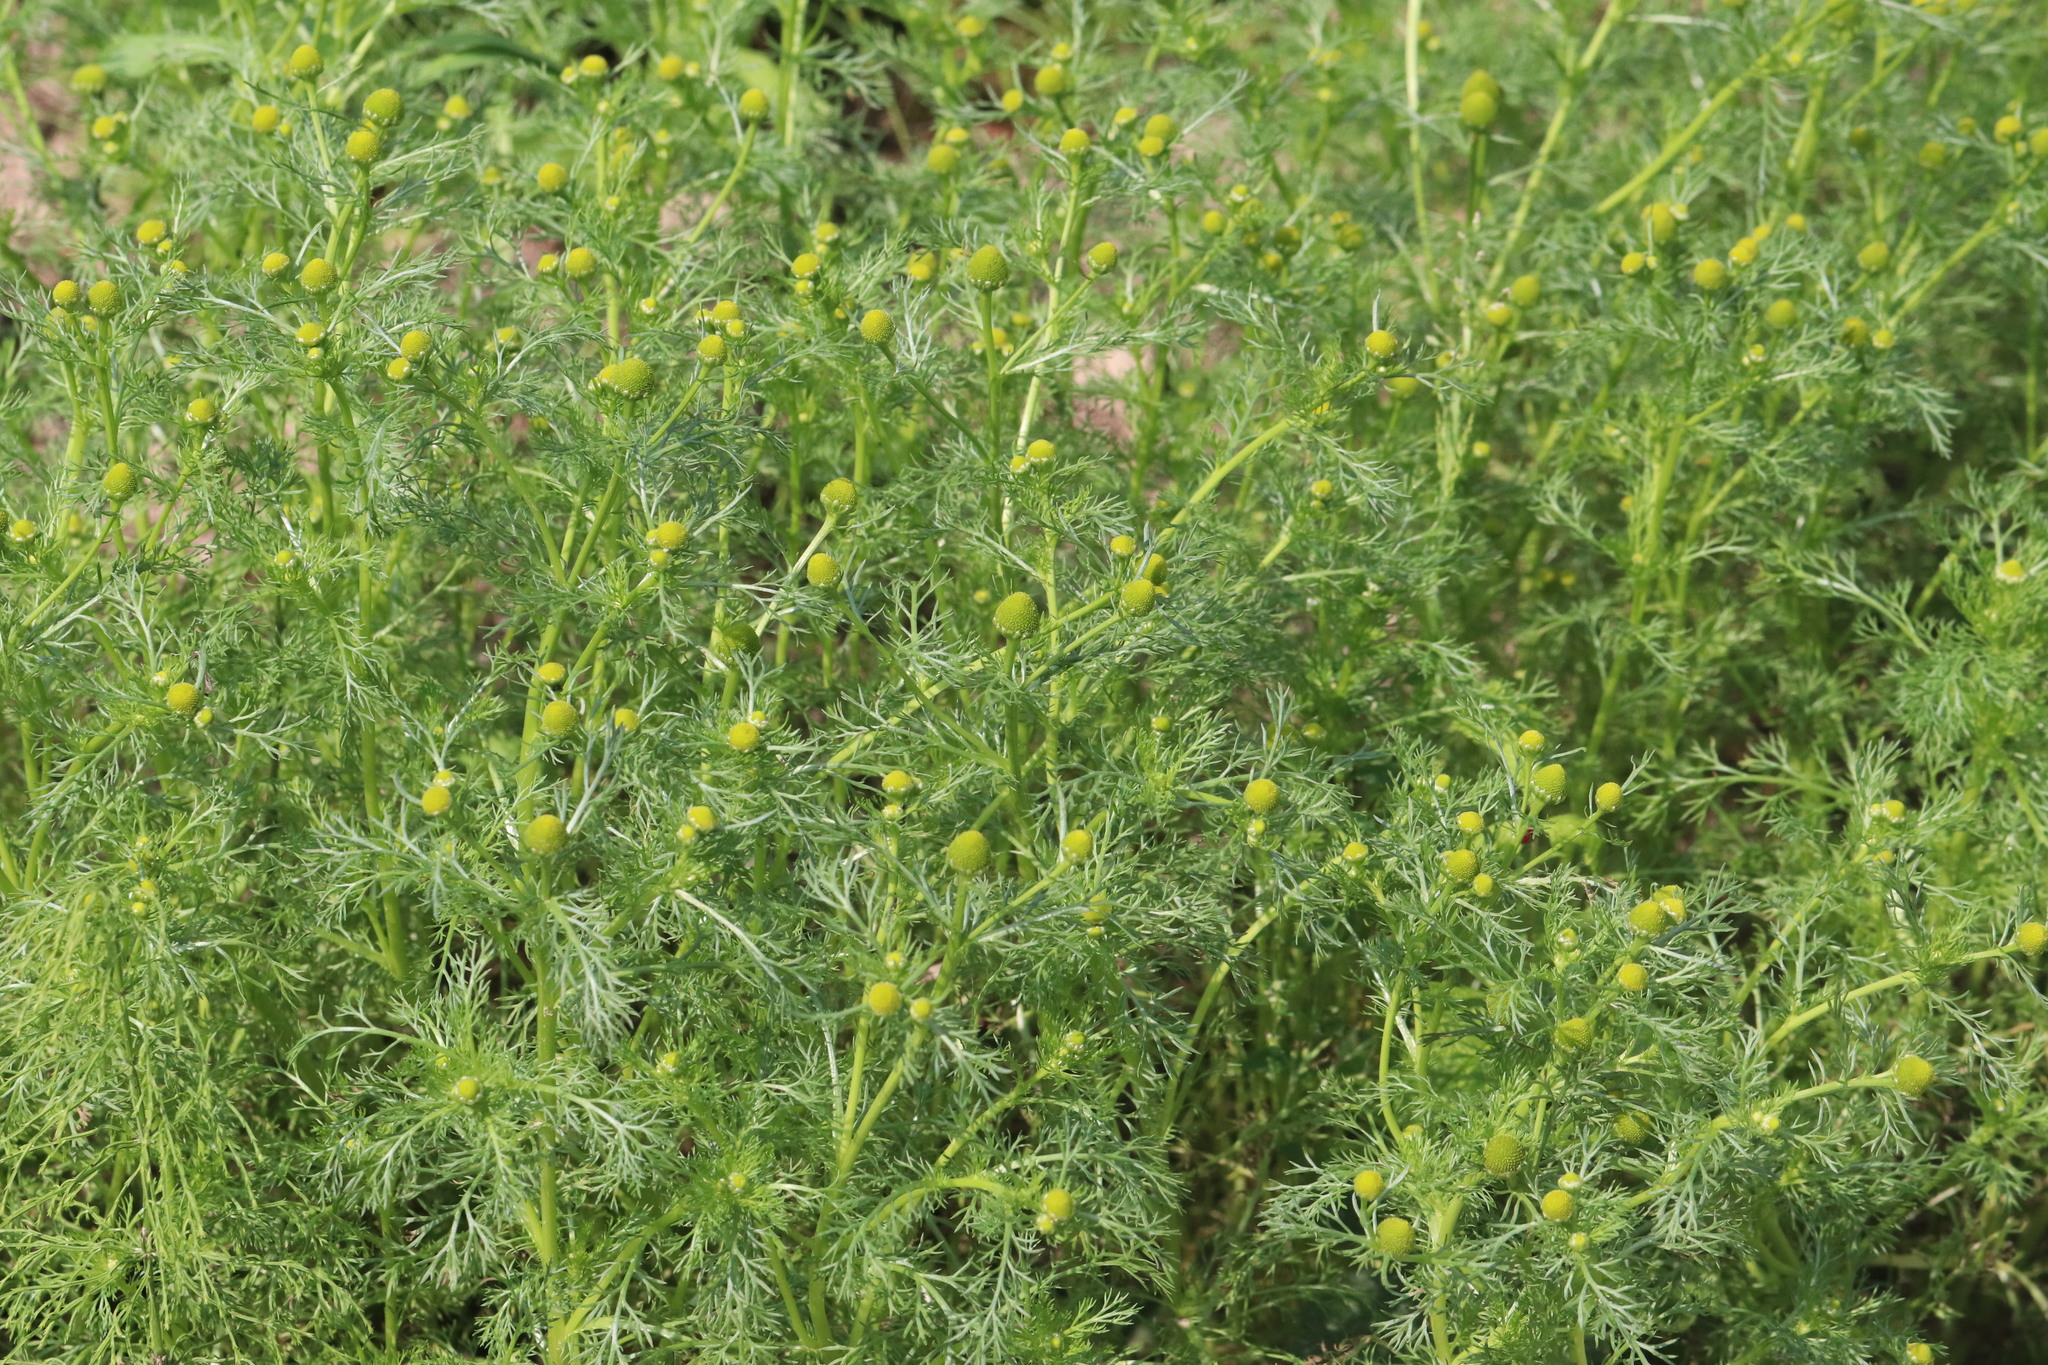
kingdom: Plantae
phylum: Tracheophyta
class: Magnoliopsida
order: Asterales
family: Asteraceae
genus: Matricaria
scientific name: Matricaria discoidea
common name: Disc mayweed
